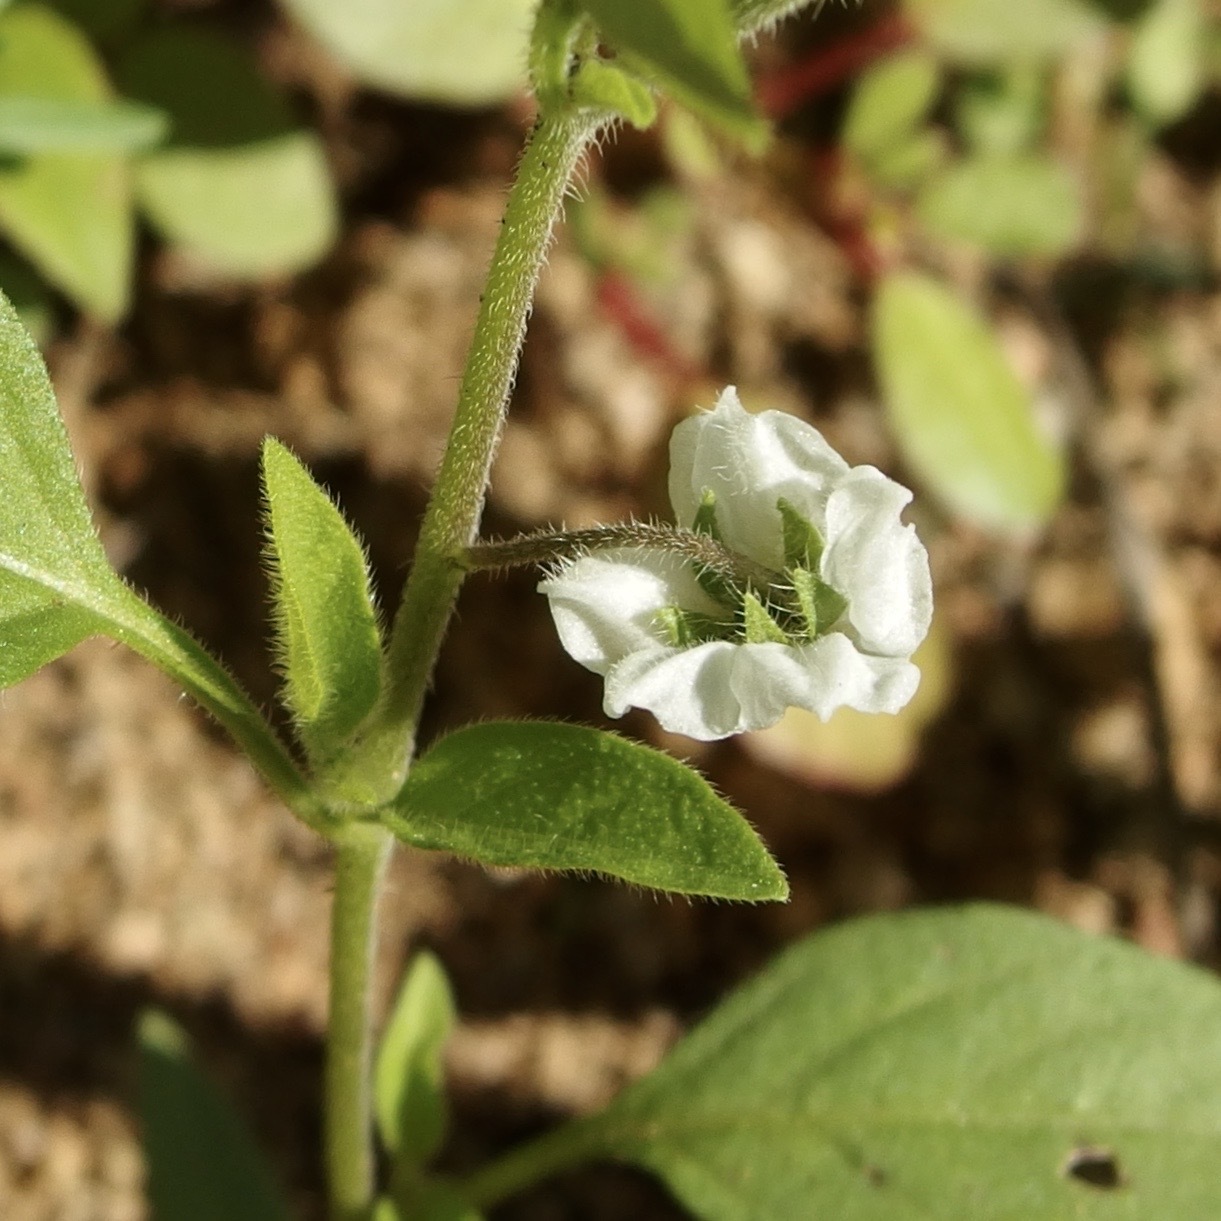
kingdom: Plantae
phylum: Tracheophyta
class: Magnoliopsida
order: Solanales
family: Solanaceae
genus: Solanum
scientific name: Solanum deflexum
